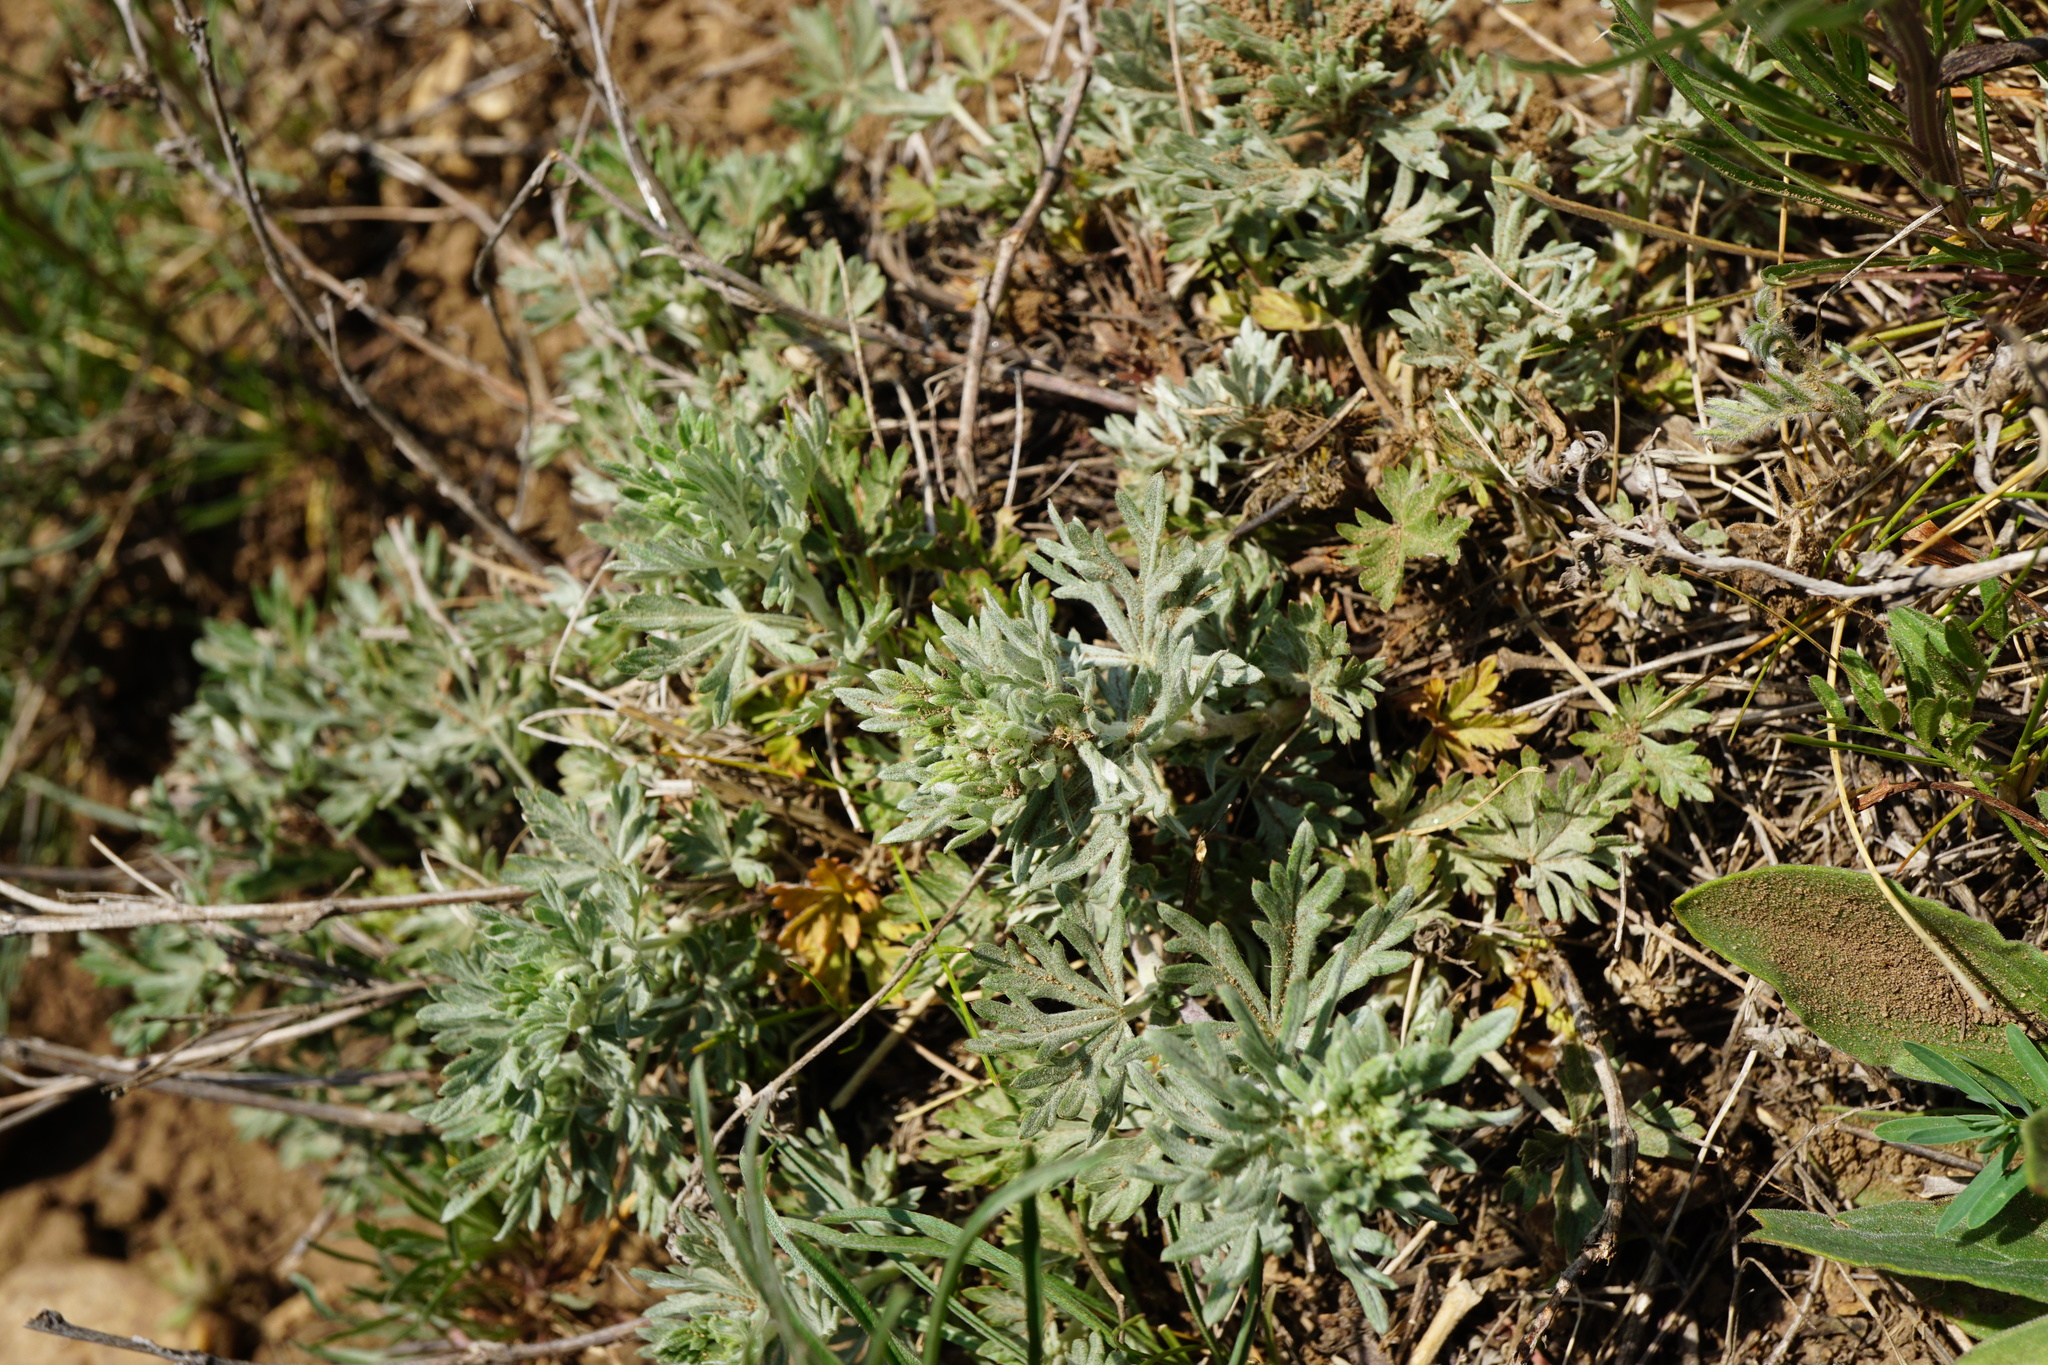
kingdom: Plantae
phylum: Tracheophyta
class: Magnoliopsida
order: Rosales
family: Rosaceae
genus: Potentilla
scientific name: Potentilla argentea
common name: Hoary cinquefoil
